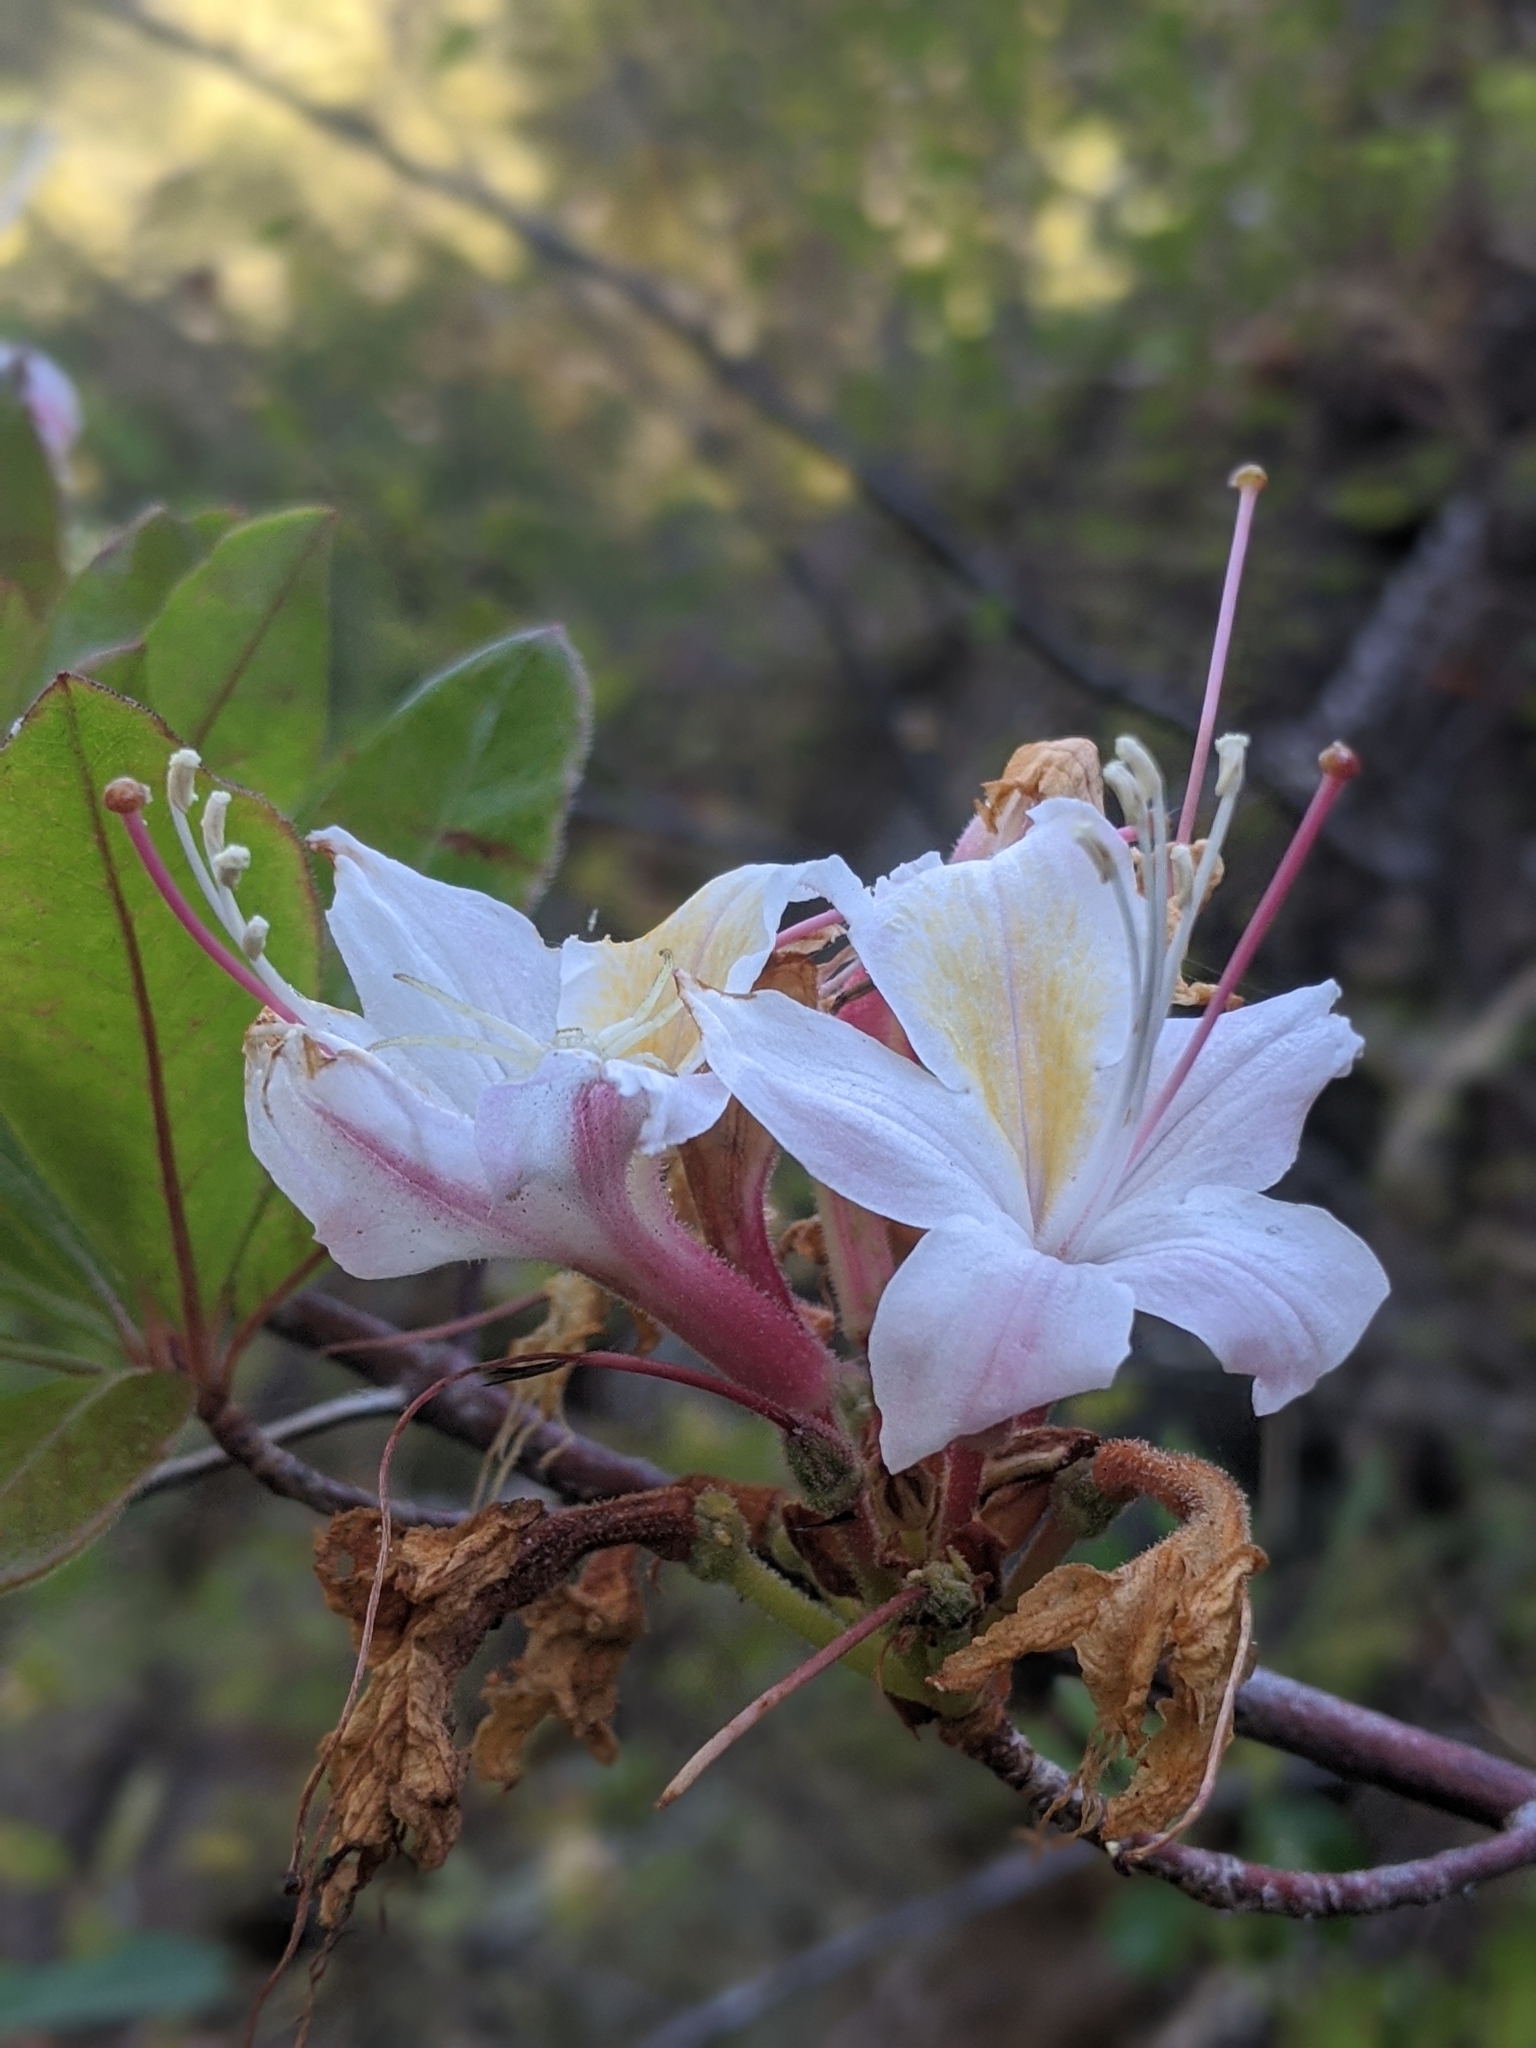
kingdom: Plantae
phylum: Tracheophyta
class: Magnoliopsida
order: Ericales
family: Ericaceae
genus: Rhododendron
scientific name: Rhododendron occidentale
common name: Western azalea
